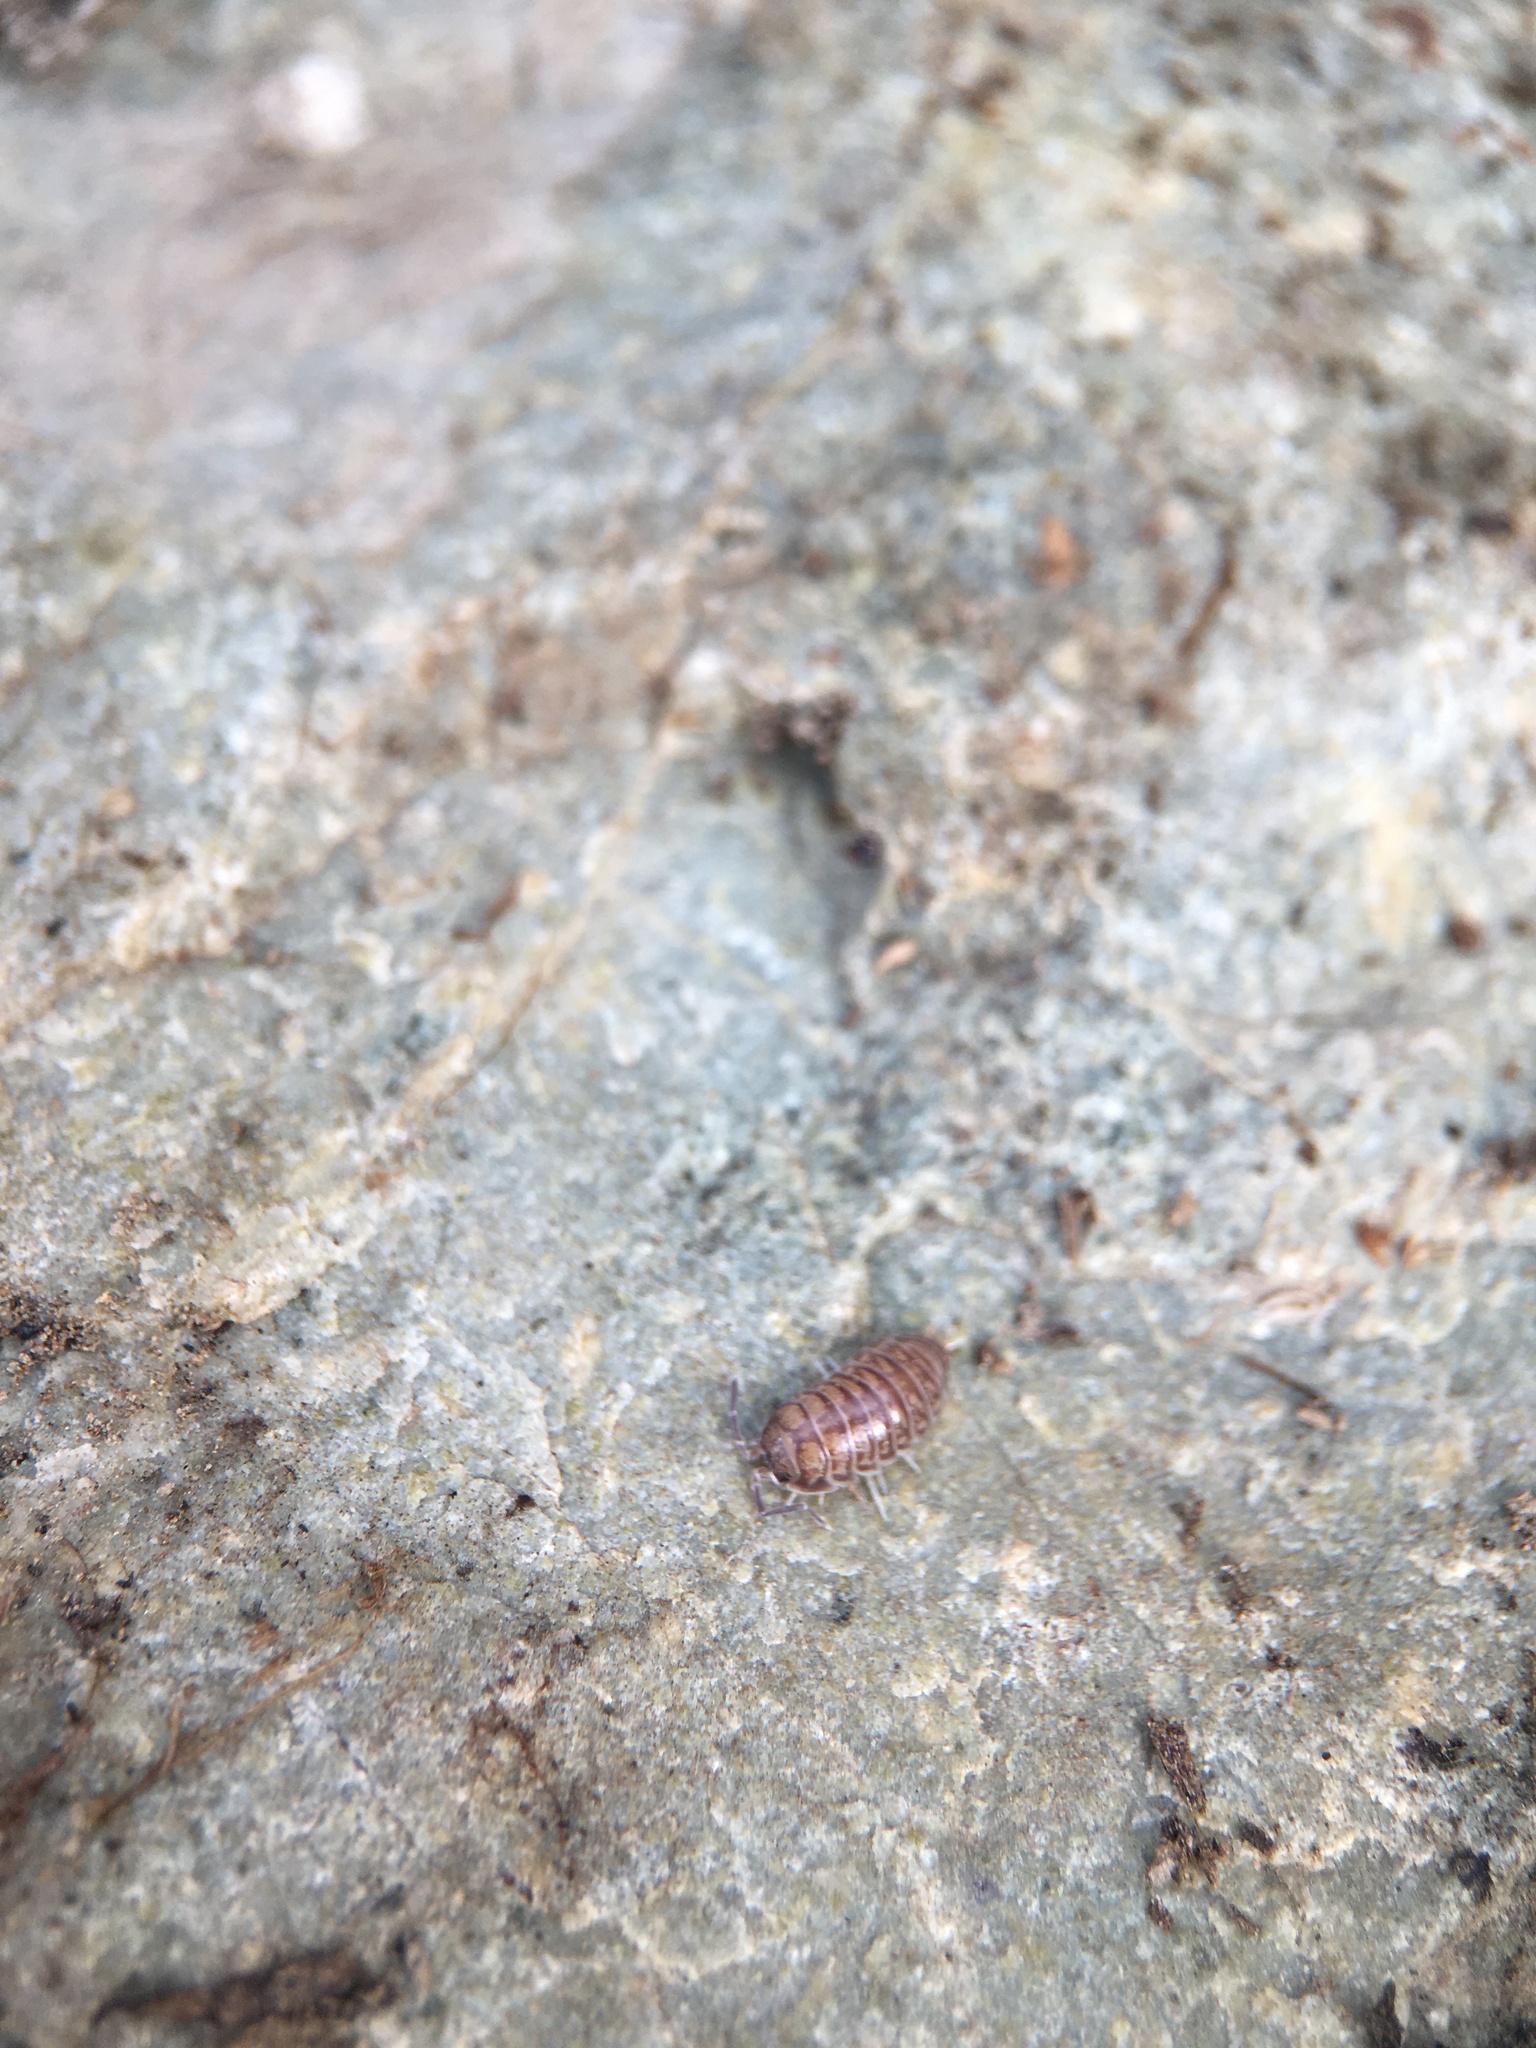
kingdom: Animalia
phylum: Arthropoda
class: Malacostraca
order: Isopoda
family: Cylisticidae
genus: Cylisticus
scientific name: Cylisticus convexus
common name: Curly woodlouse
